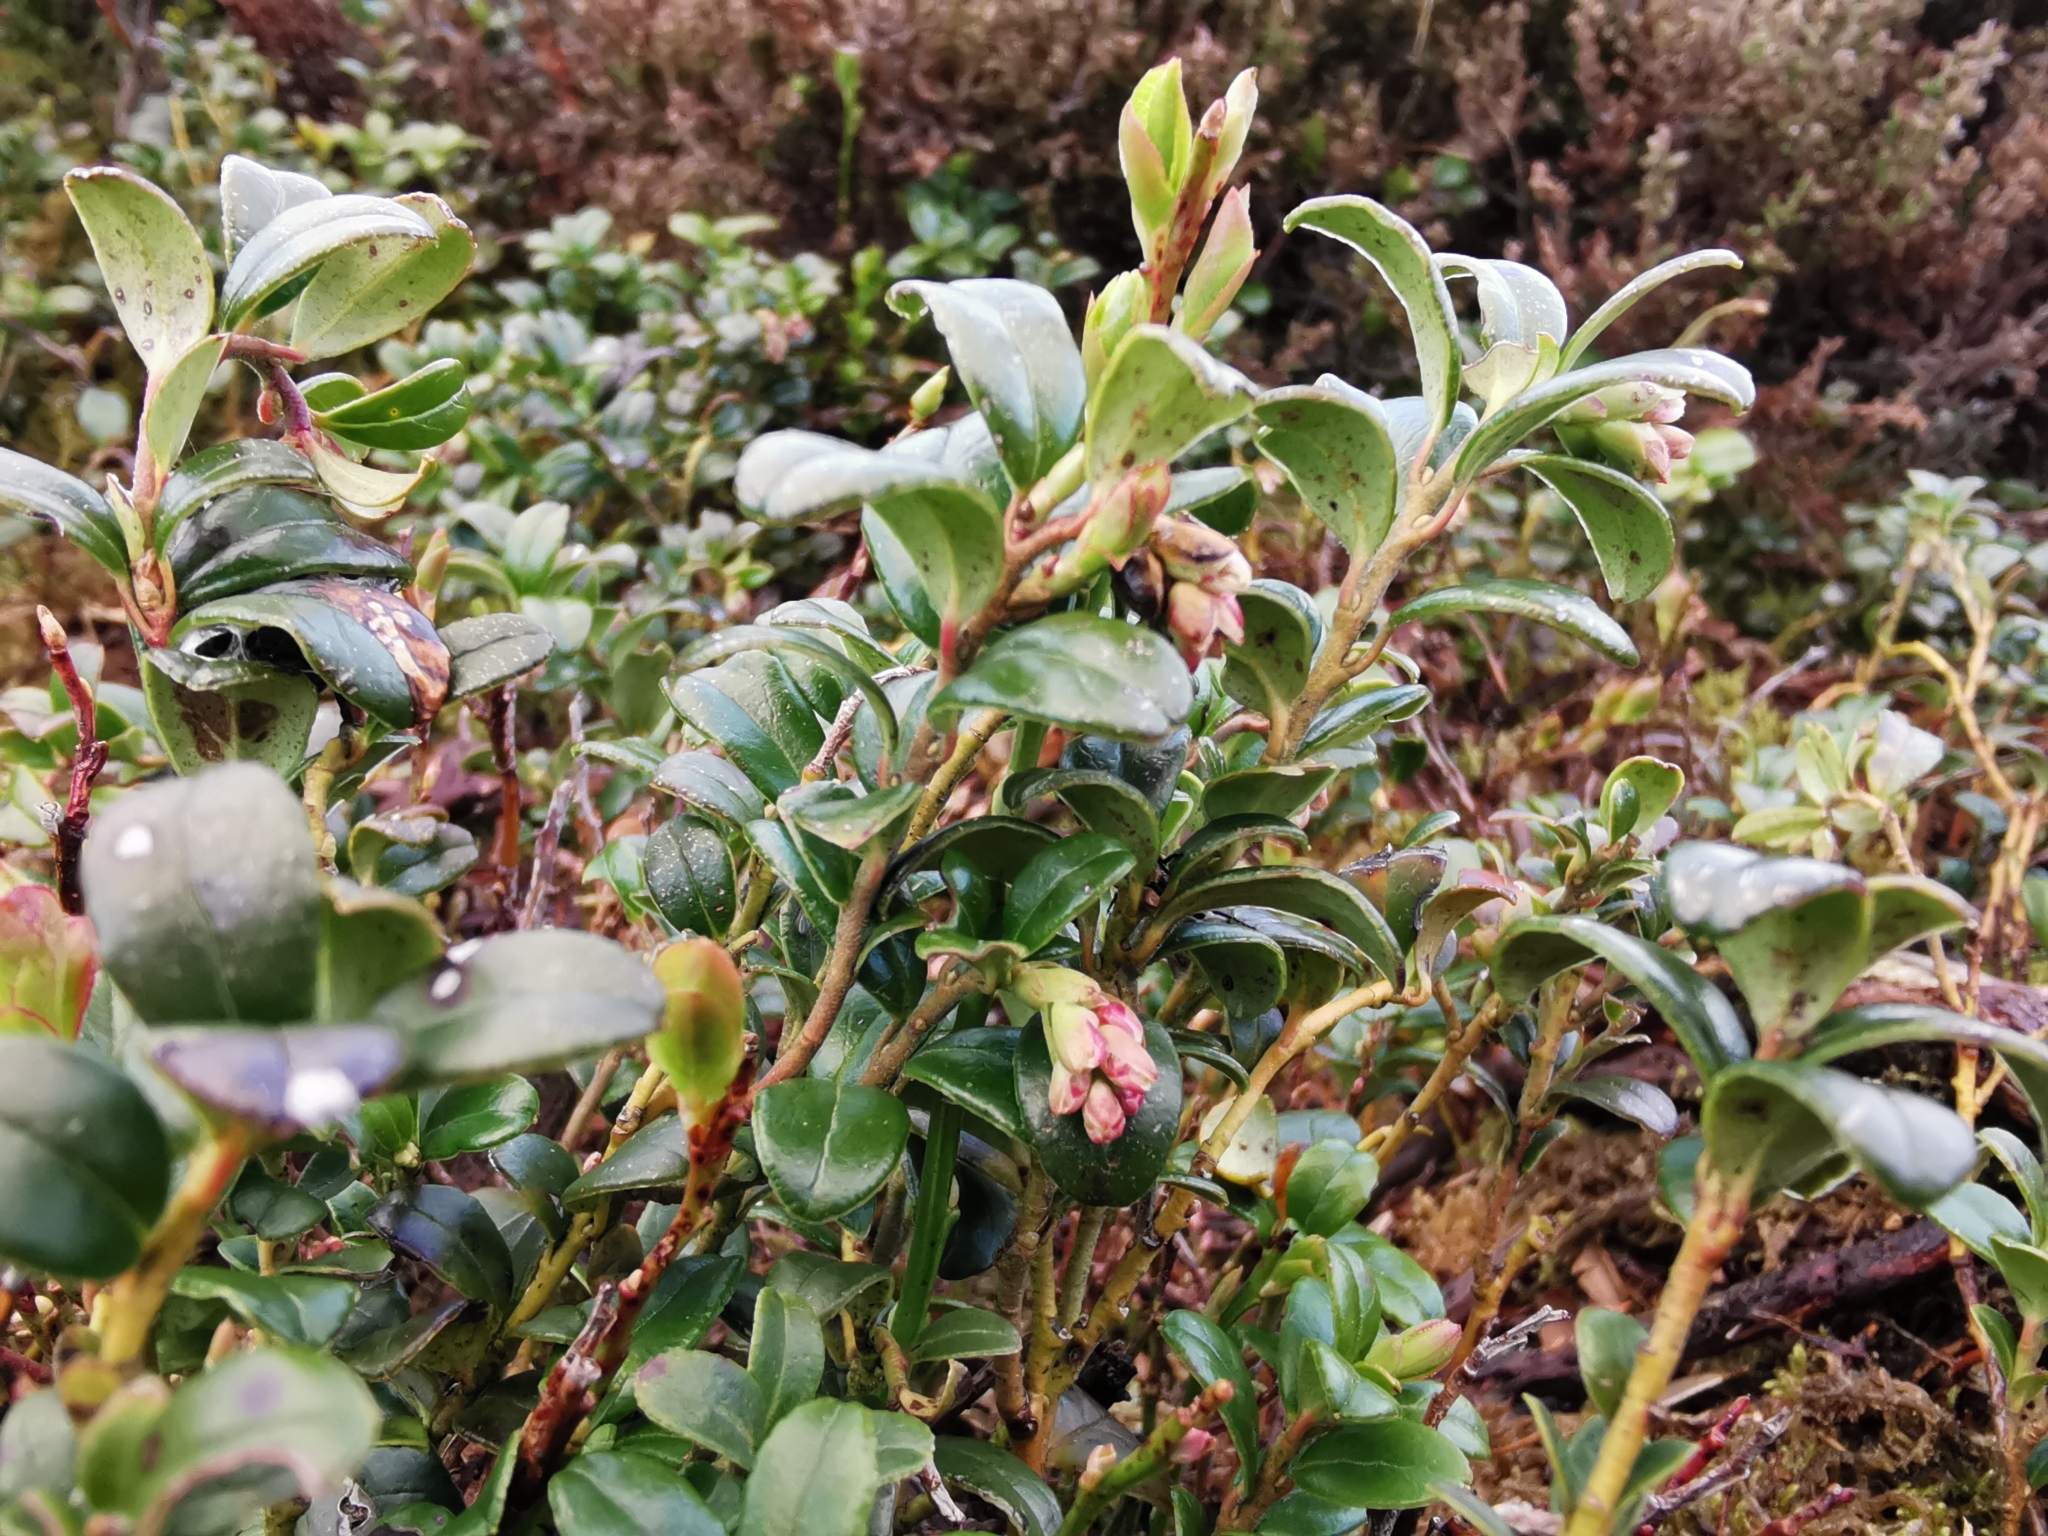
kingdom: Plantae
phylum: Tracheophyta
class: Magnoliopsida
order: Ericales
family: Ericaceae
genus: Vaccinium
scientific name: Vaccinium vitis-idaea
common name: Cowberry
